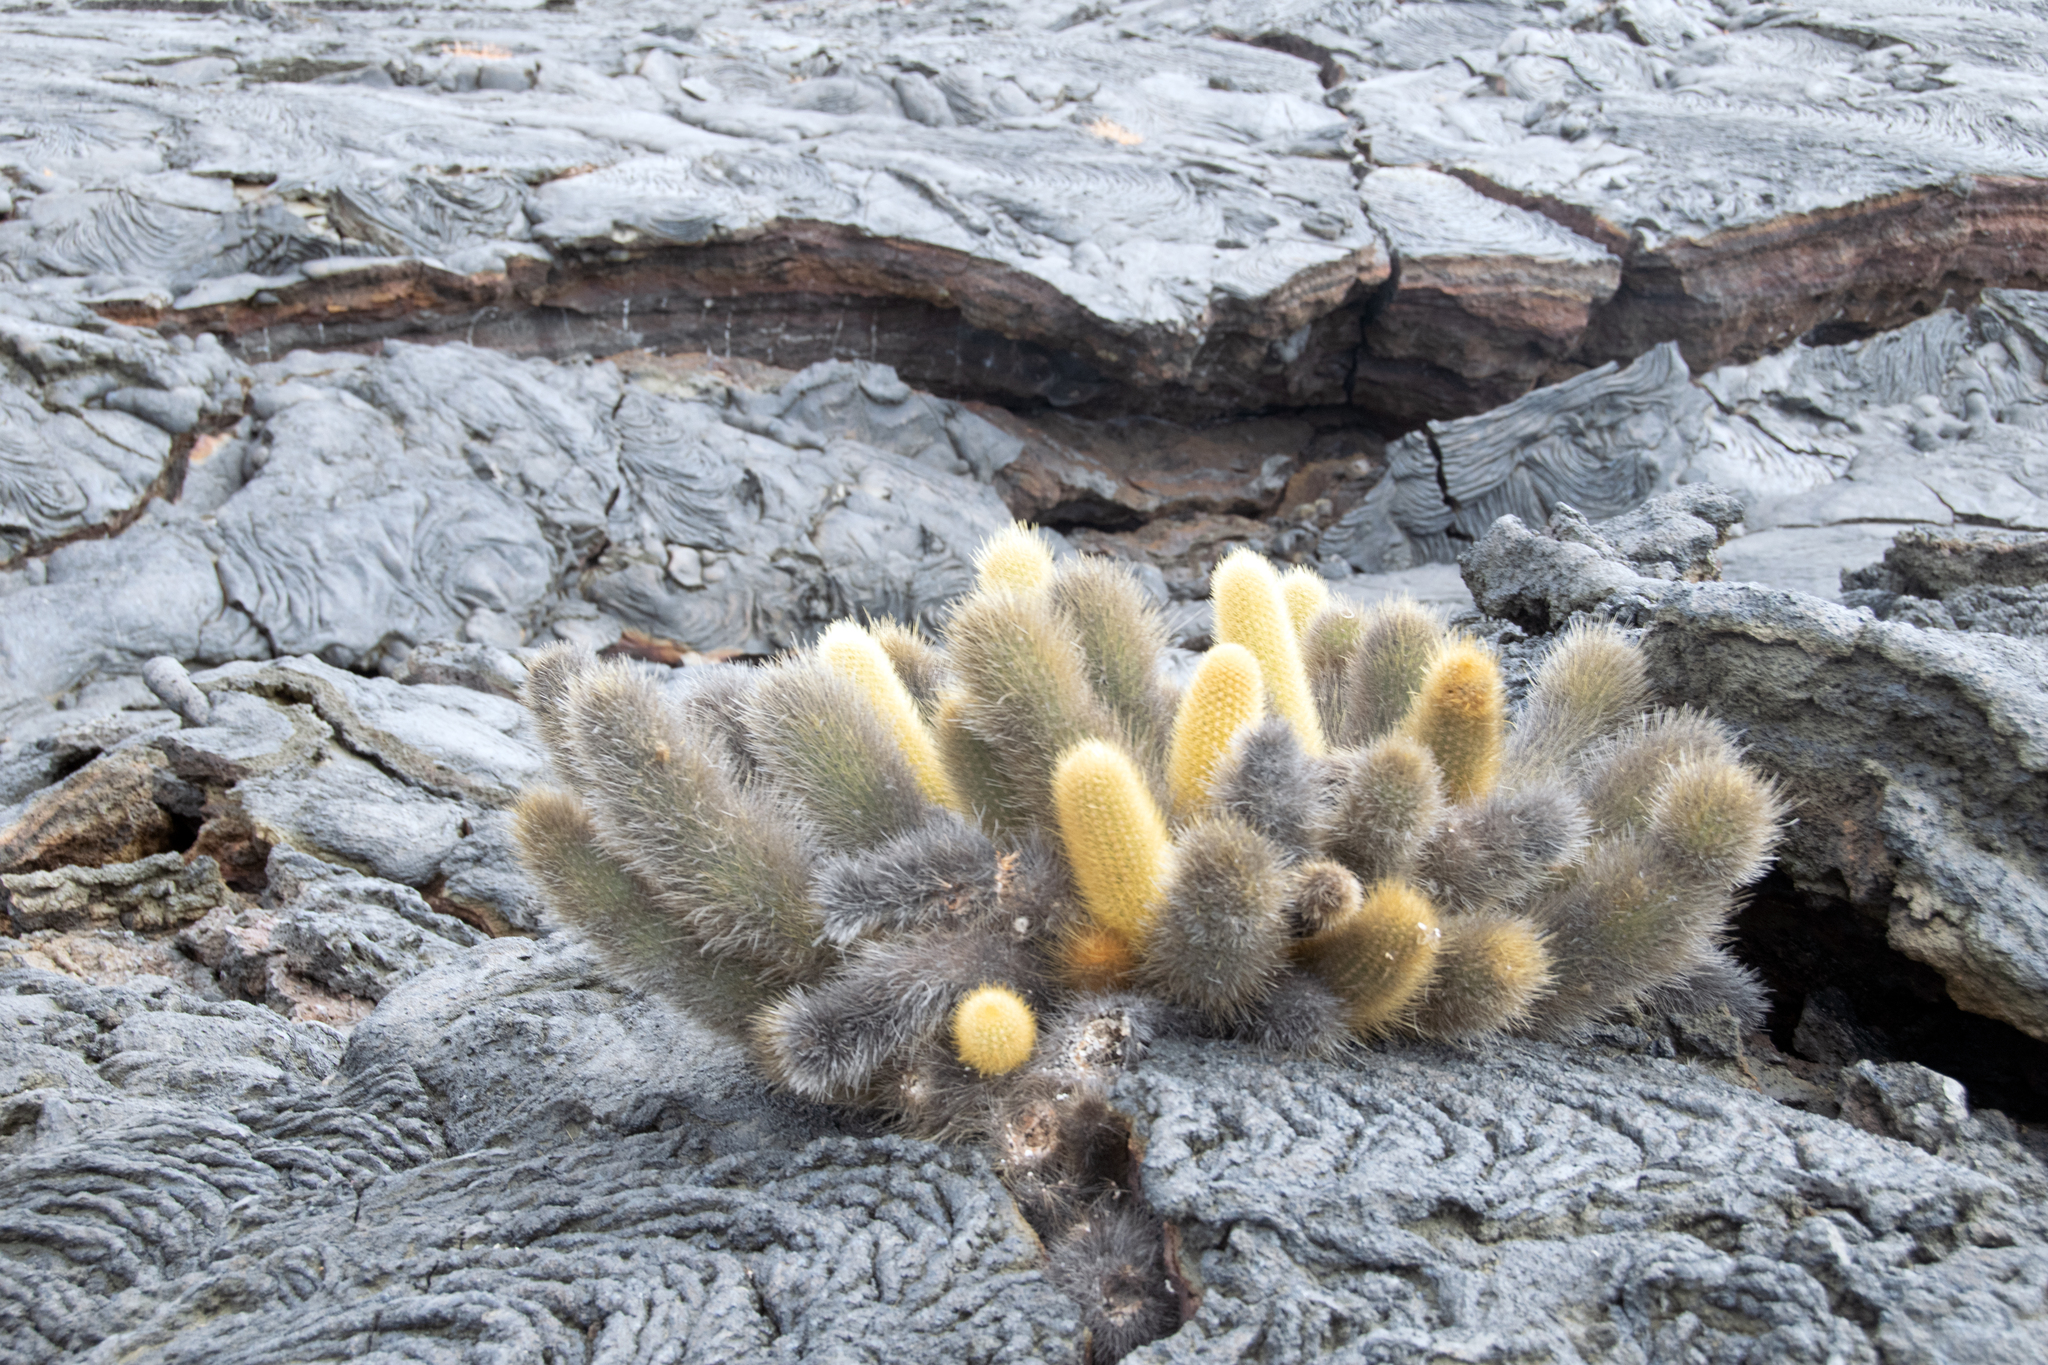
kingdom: Plantae
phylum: Tracheophyta
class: Magnoliopsida
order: Caryophyllales
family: Cactaceae
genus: Brachycereus
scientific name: Brachycereus nesioticus
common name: Lava cactus
